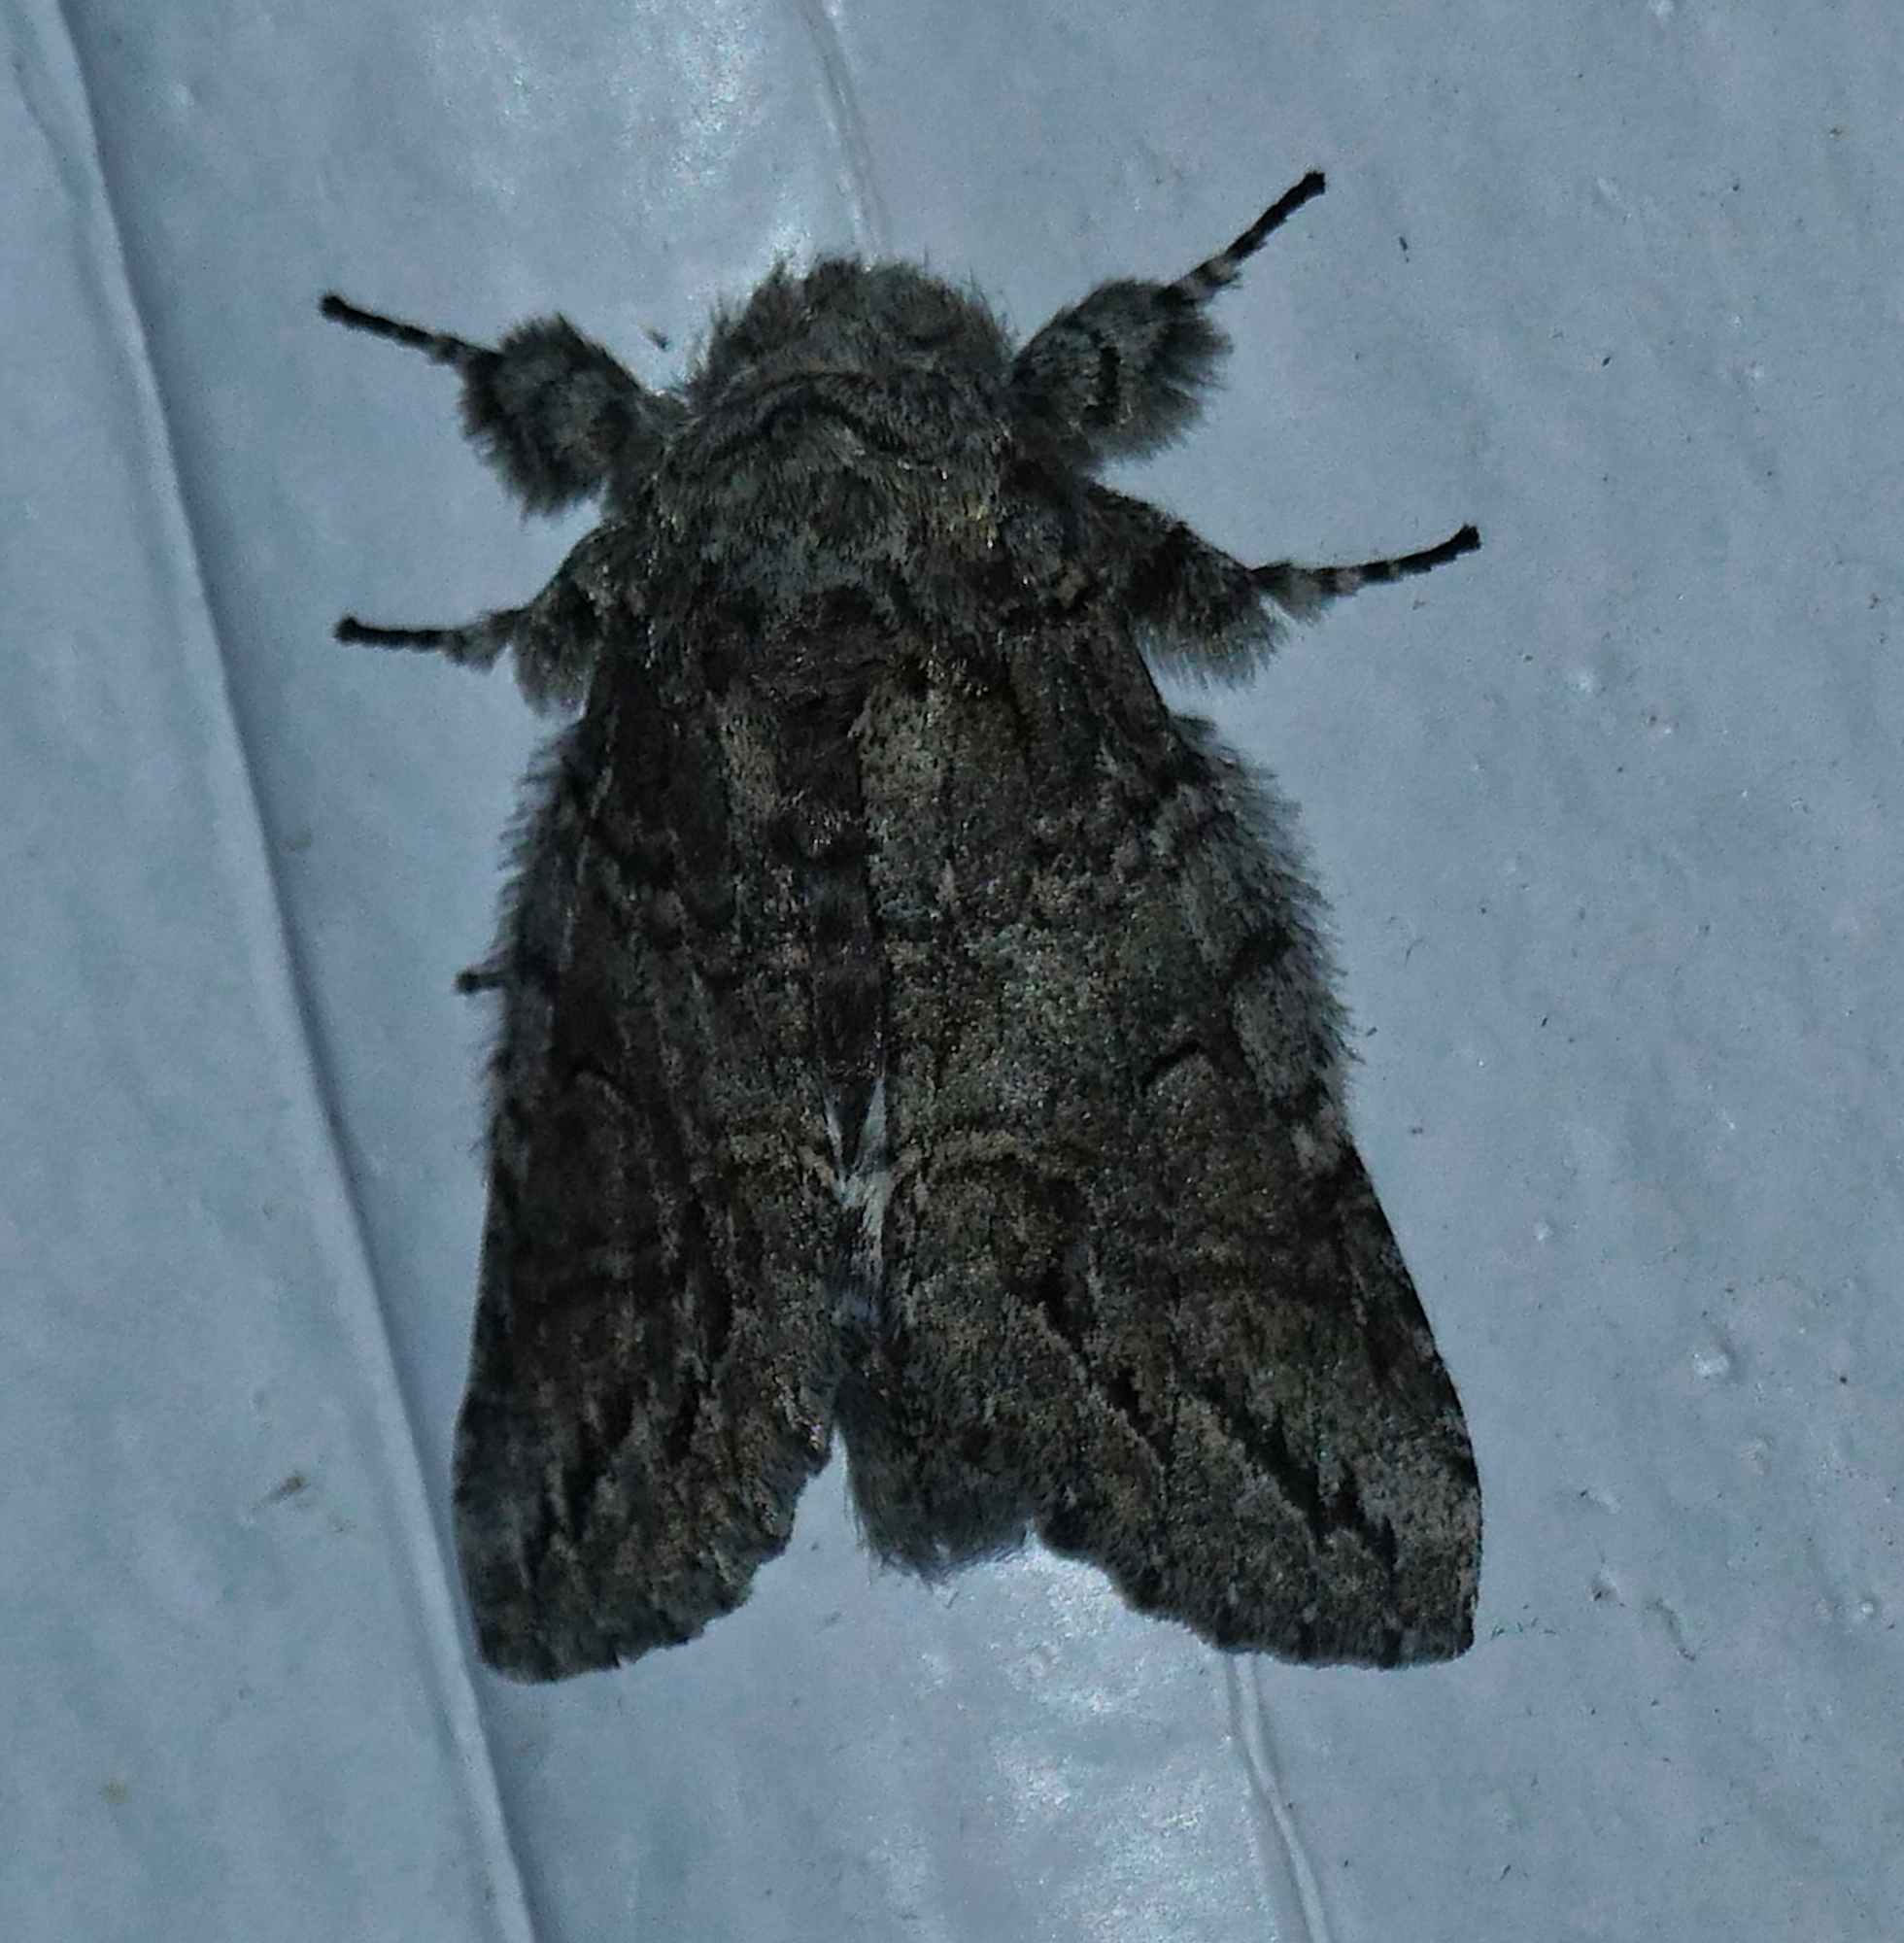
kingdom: Animalia
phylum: Arthropoda
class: Insecta
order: Lepidoptera
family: Notodontidae
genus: Heterocampa
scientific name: Heterocampa averna
